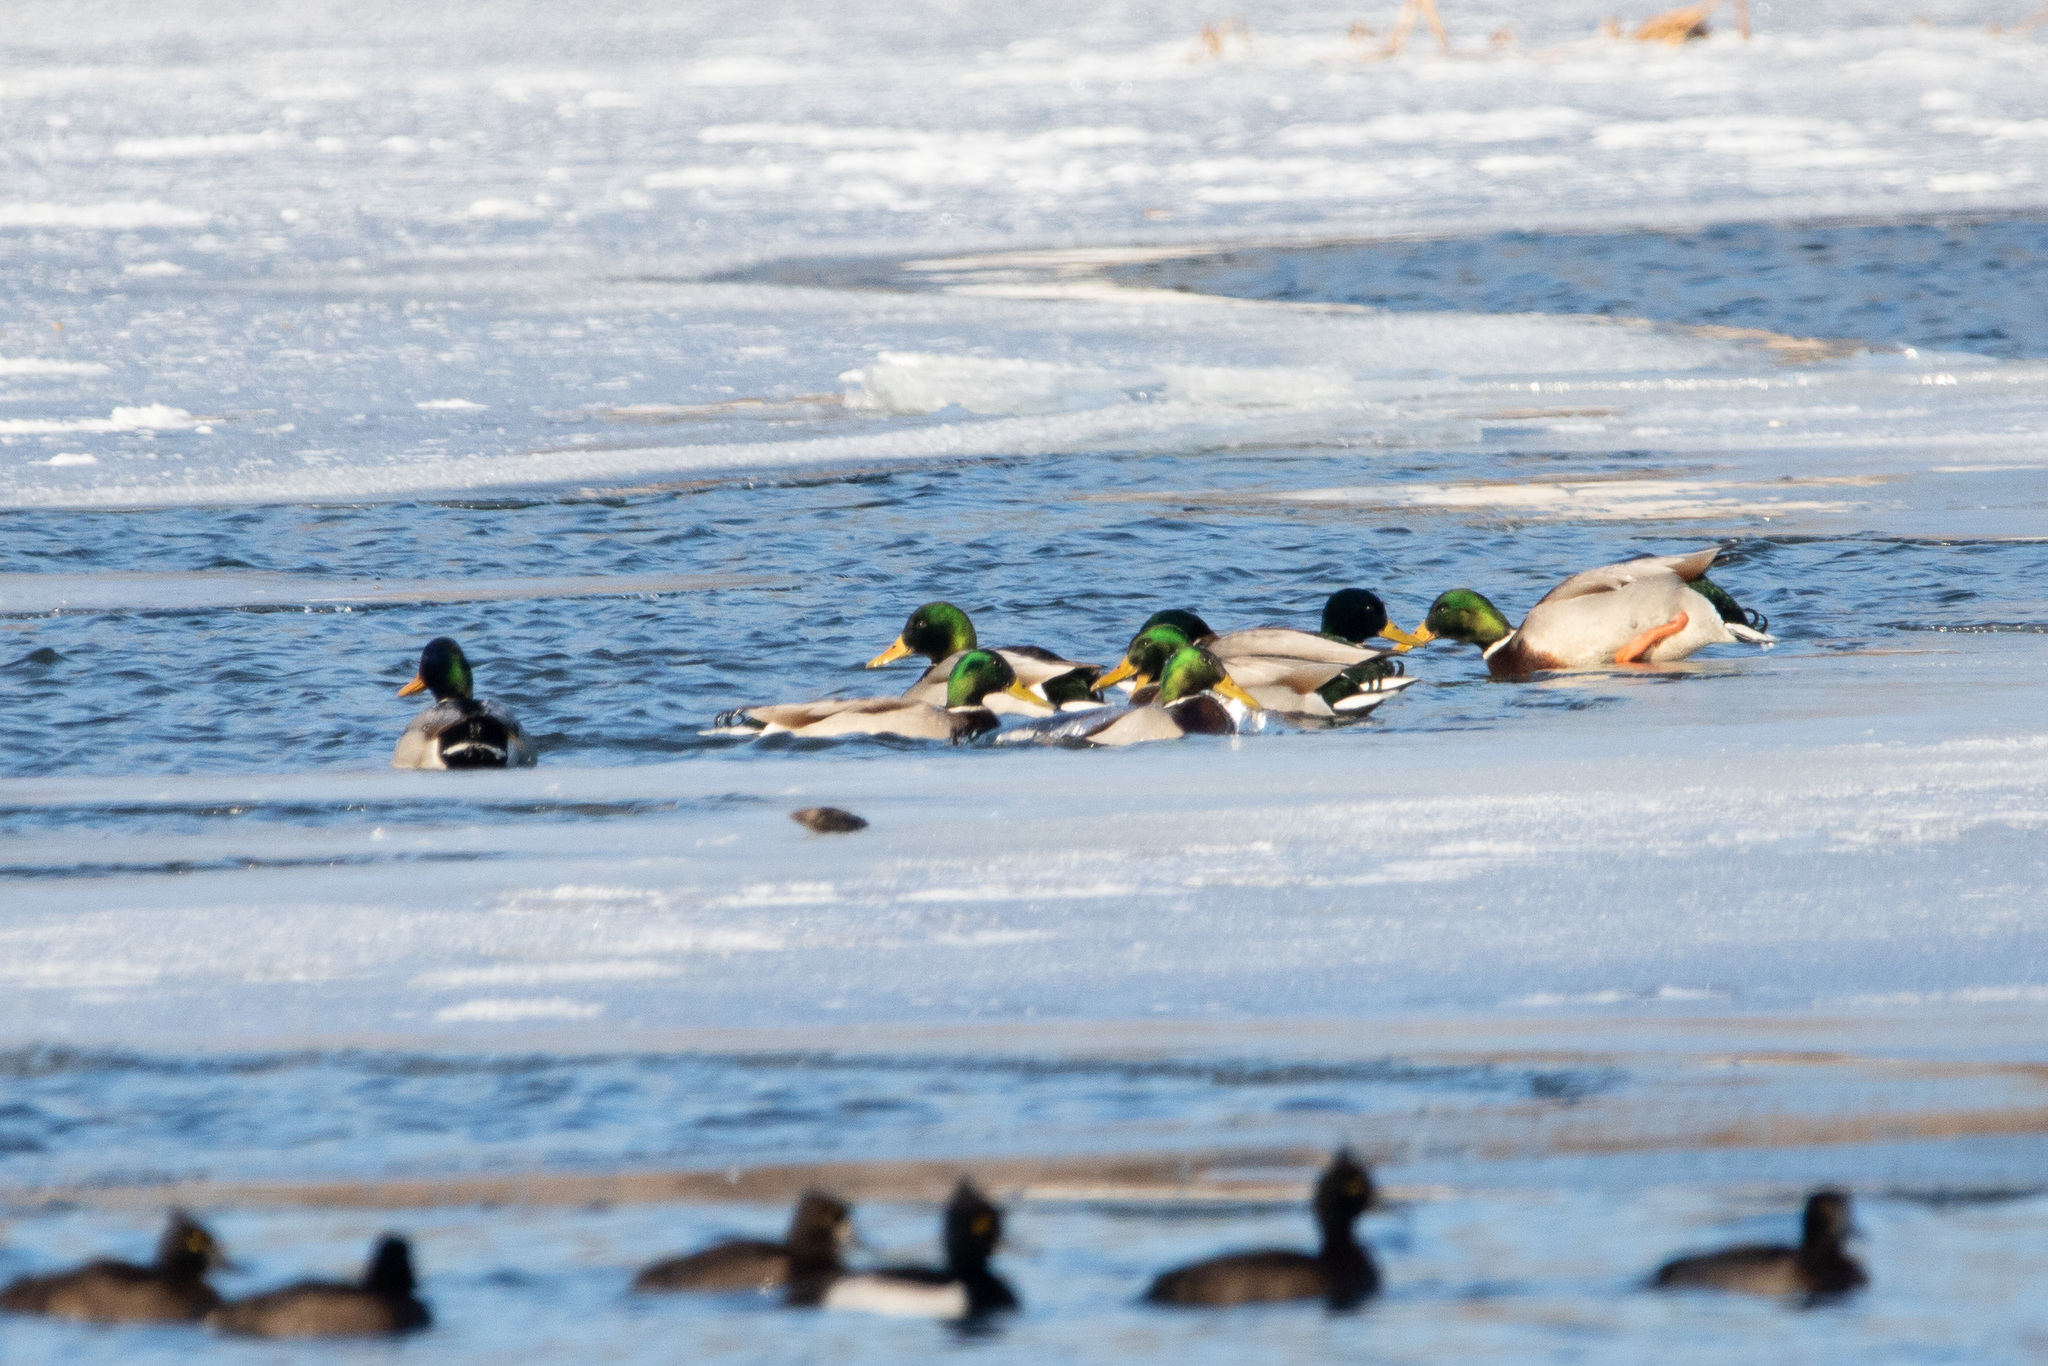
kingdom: Animalia
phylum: Chordata
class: Aves
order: Anseriformes
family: Anatidae
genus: Anas
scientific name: Anas platyrhynchos
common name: Mallard
